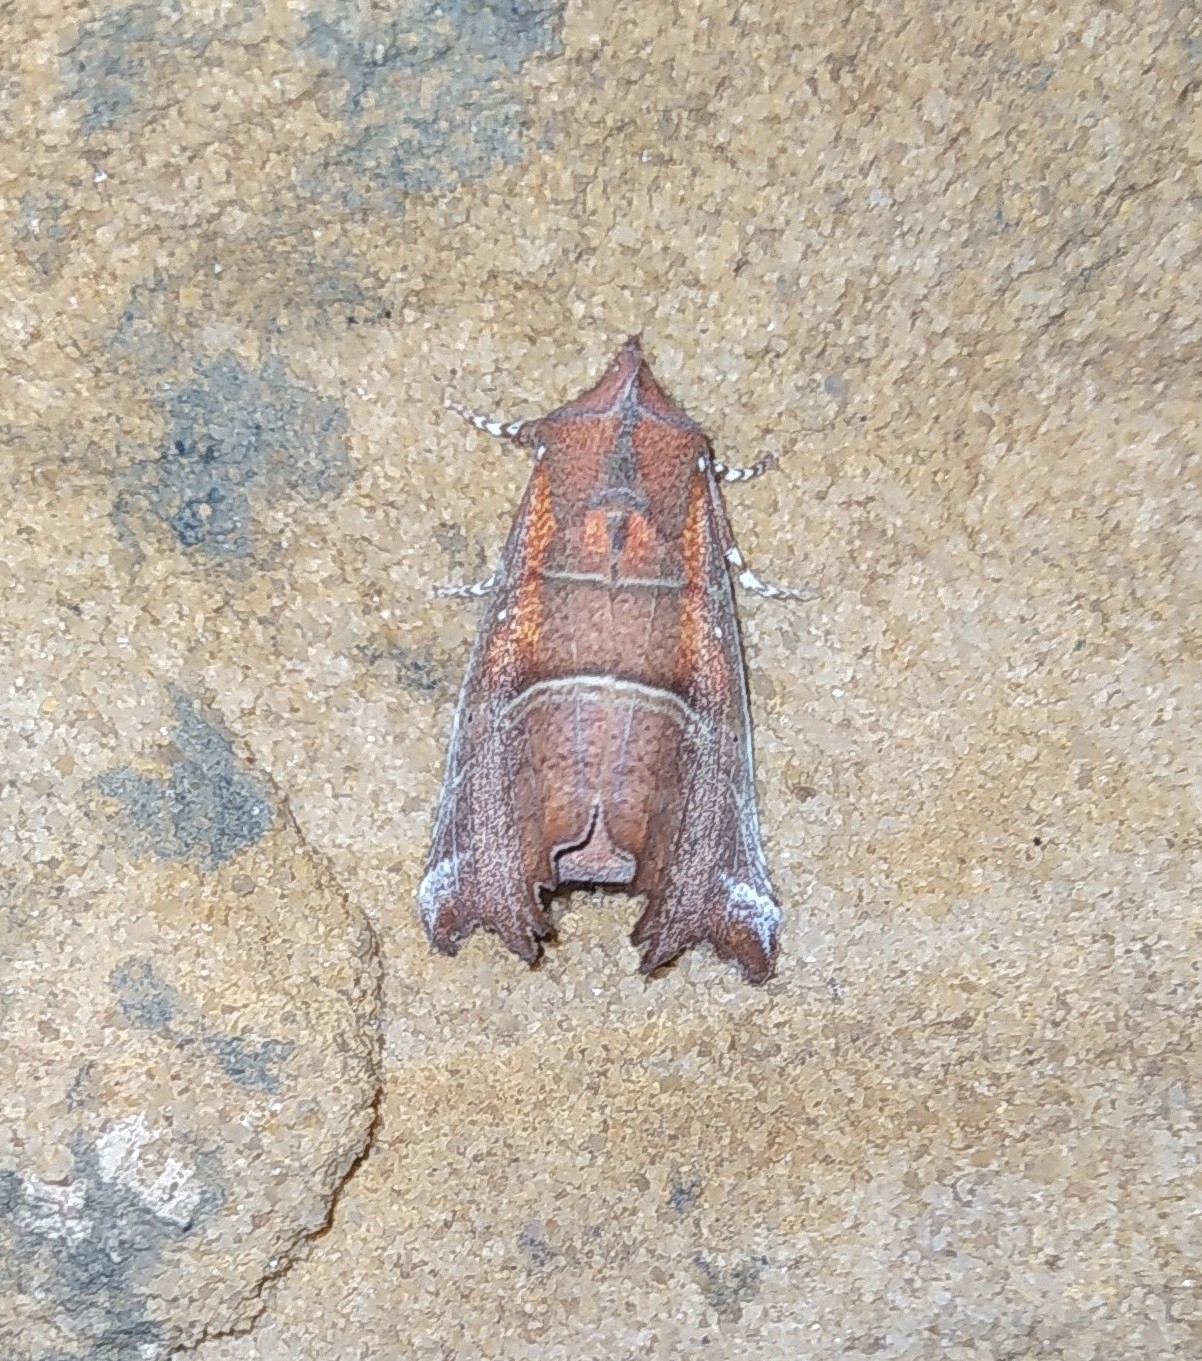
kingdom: Animalia
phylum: Arthropoda
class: Insecta
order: Lepidoptera
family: Erebidae
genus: Scoliopteryx
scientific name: Scoliopteryx libatrix
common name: Herald
